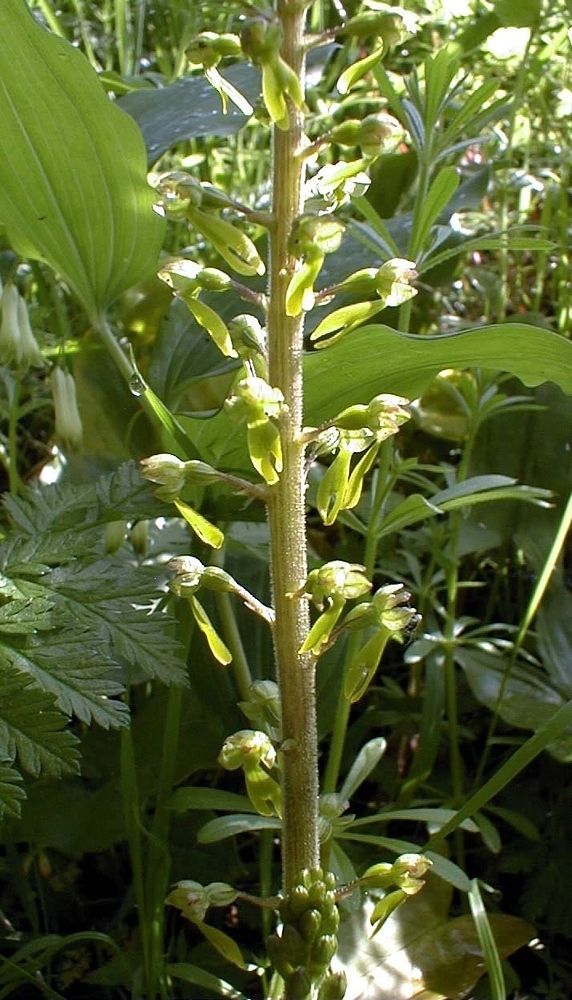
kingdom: Plantae
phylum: Tracheophyta
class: Liliopsida
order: Asparagales
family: Orchidaceae
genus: Neottia
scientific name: Neottia ovata
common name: Common twayblade
